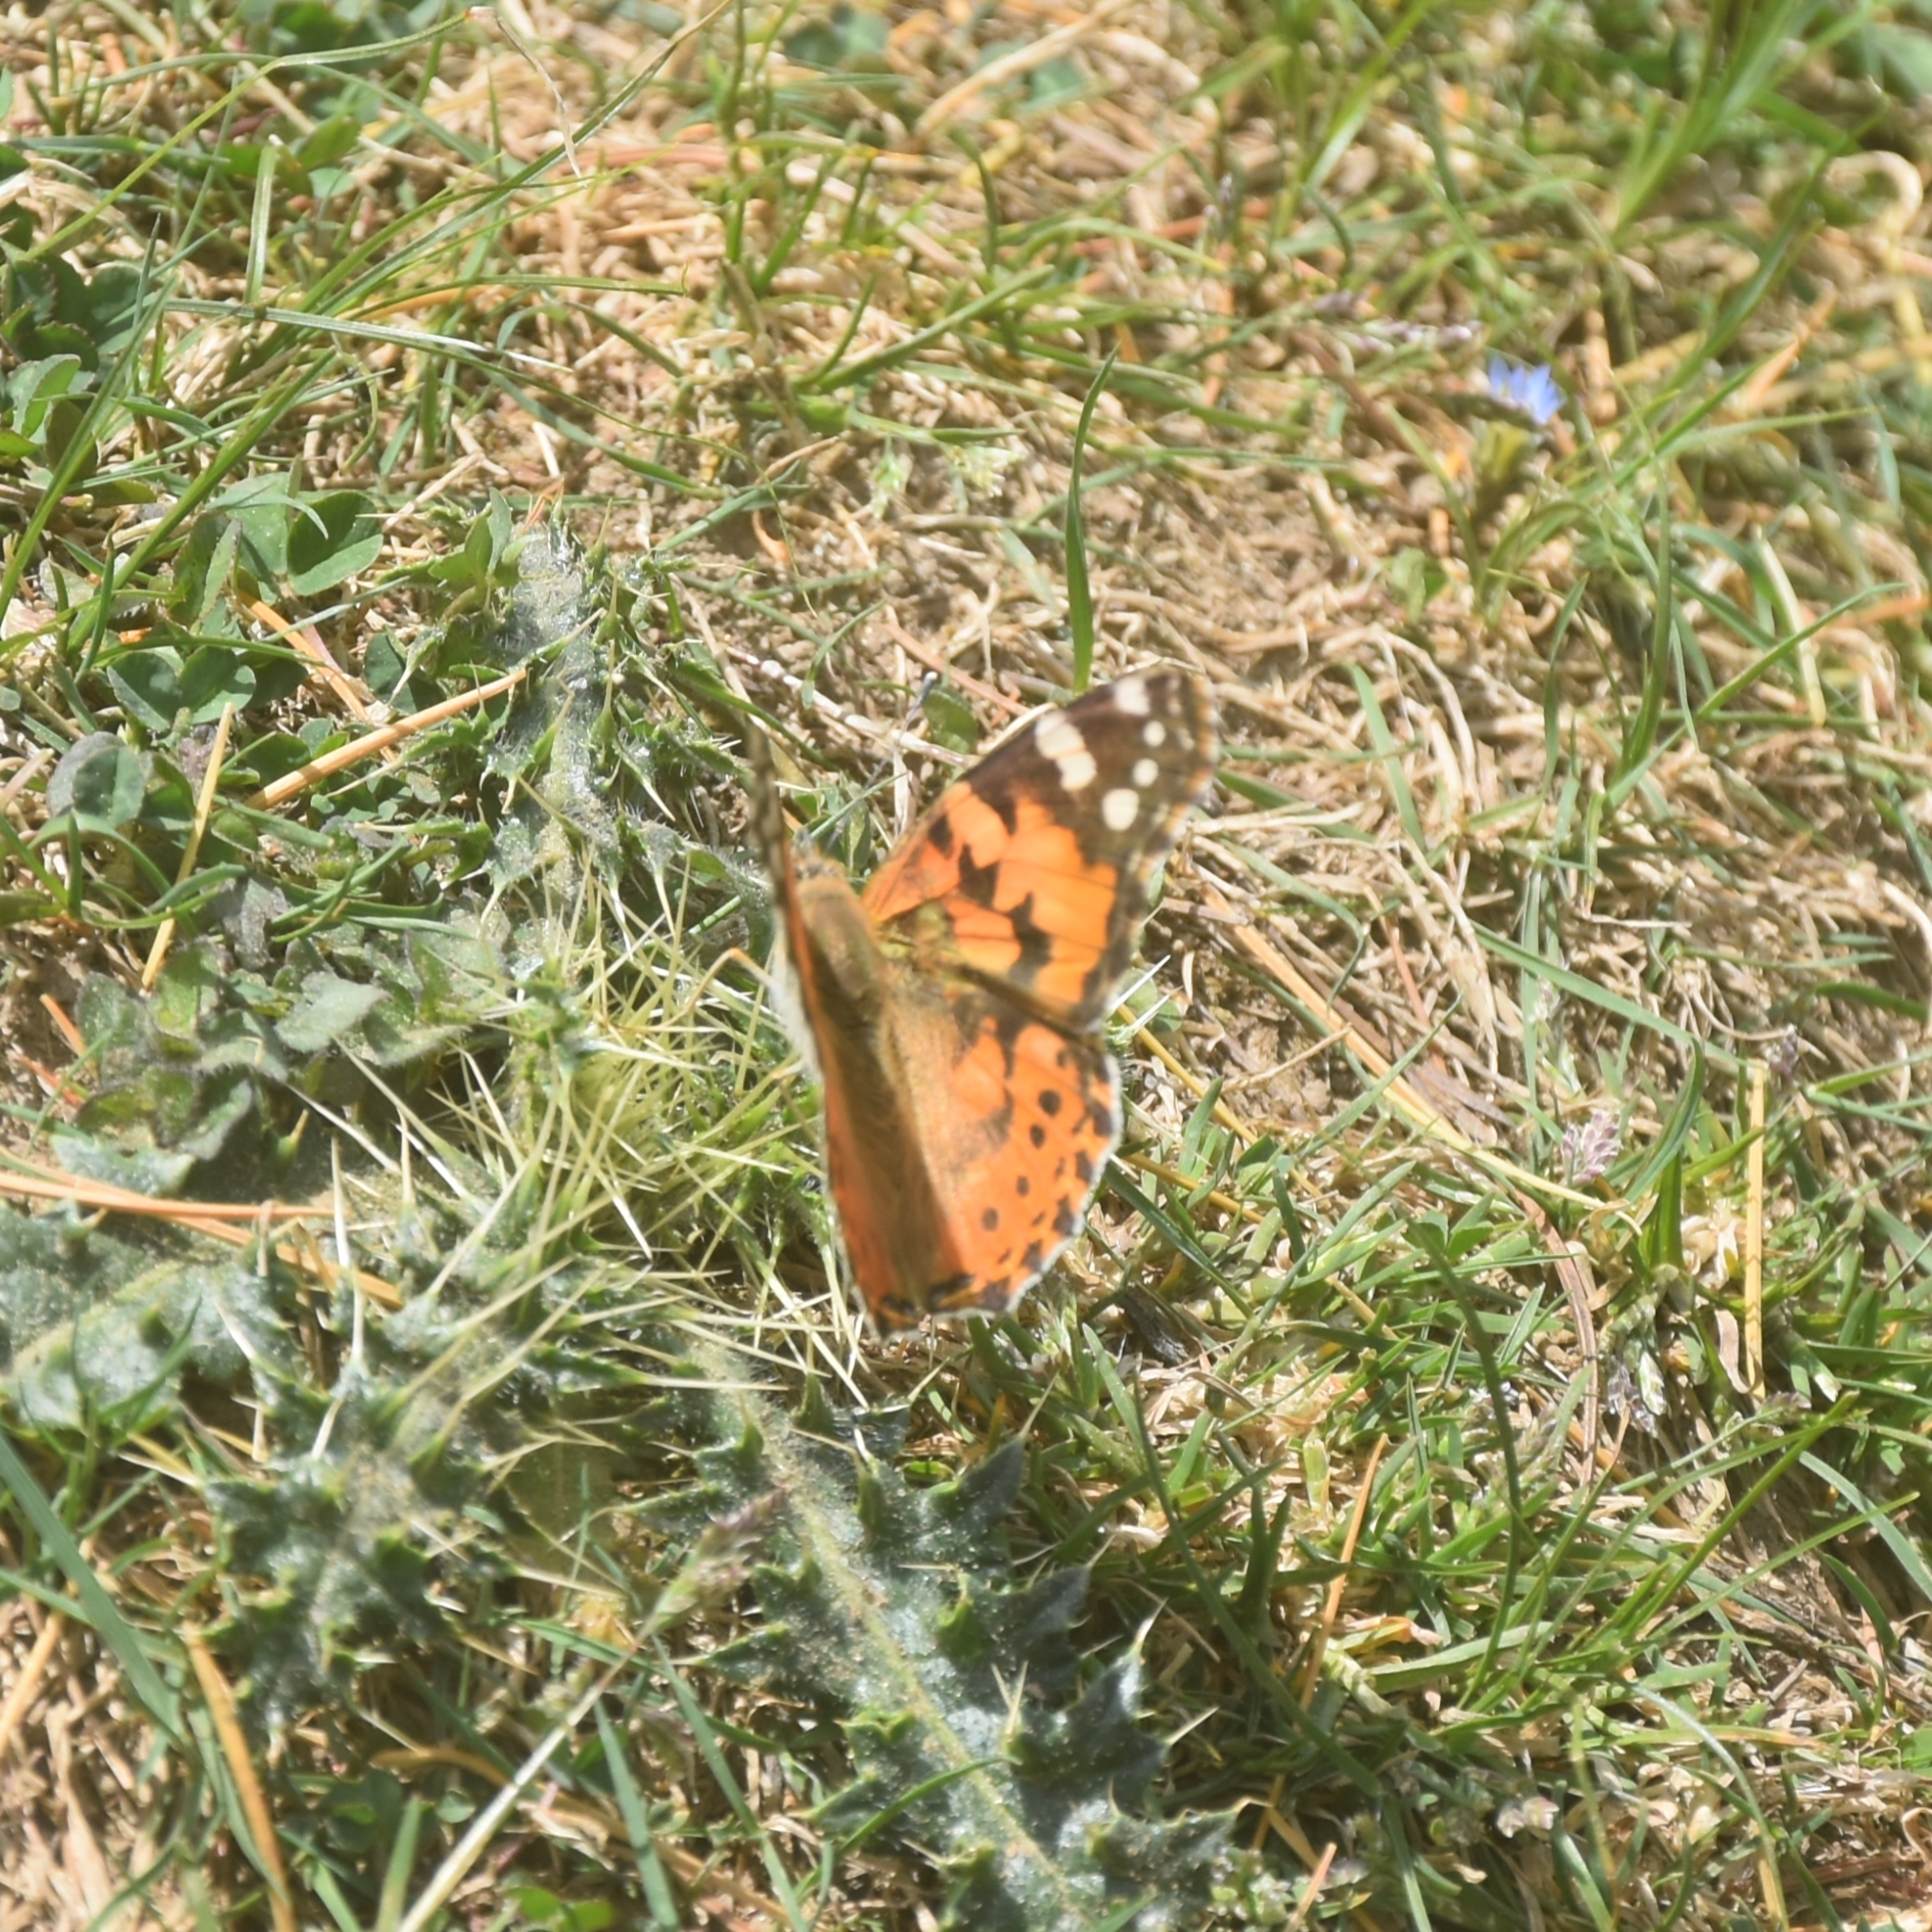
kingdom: Animalia
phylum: Arthropoda
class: Insecta
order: Lepidoptera
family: Nymphalidae
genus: Vanessa
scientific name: Vanessa cardui
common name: Painted lady
